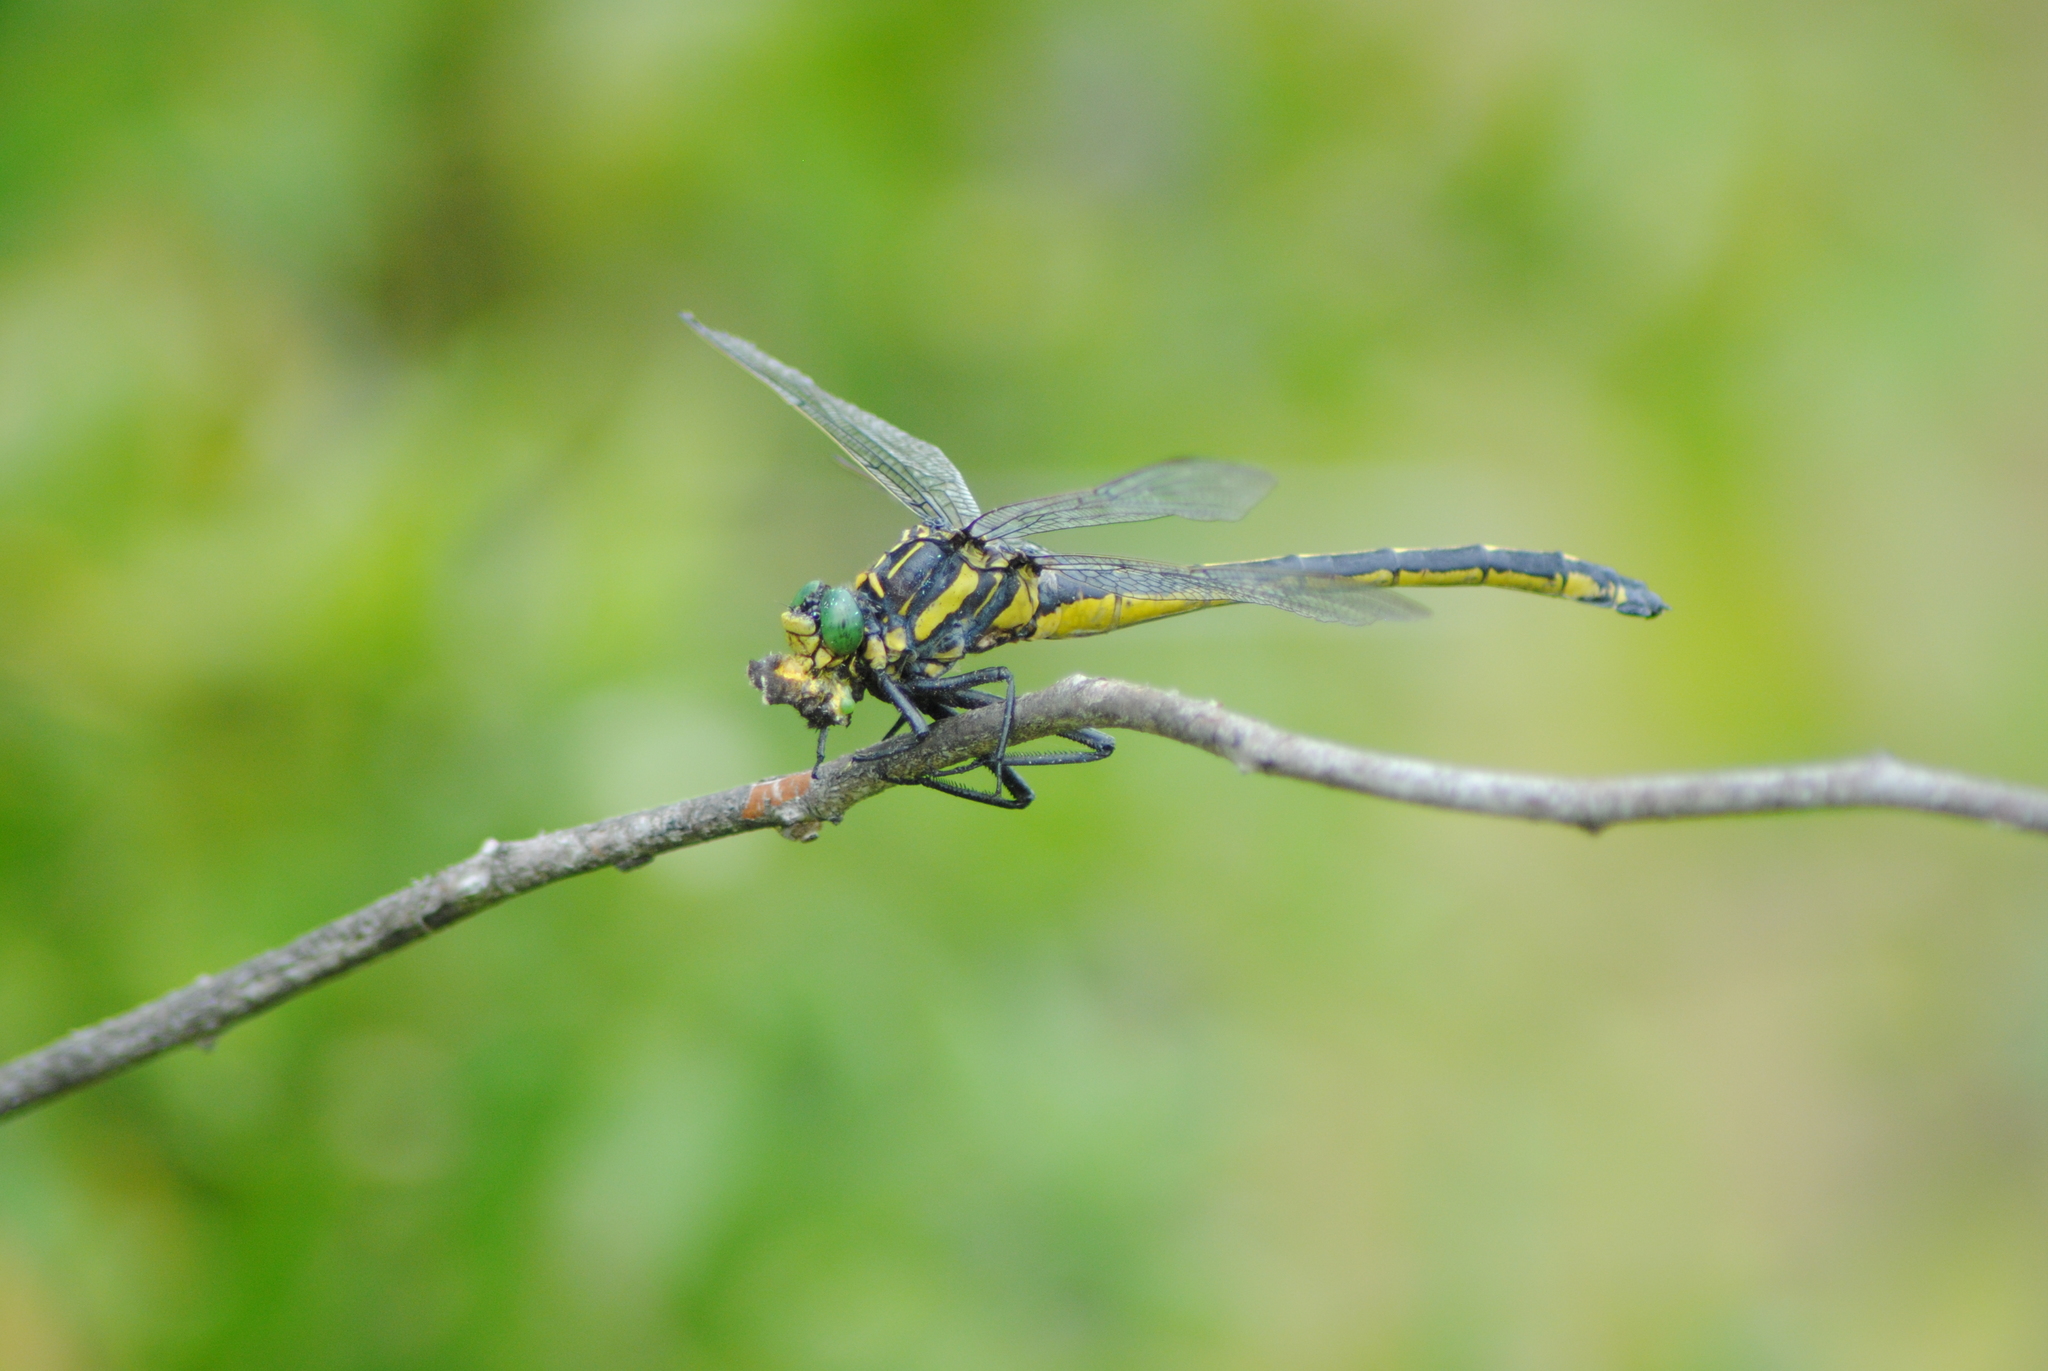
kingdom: Animalia
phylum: Arthropoda
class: Insecta
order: Odonata
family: Gomphidae
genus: Hagenius
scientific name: Hagenius brevistylus
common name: Dragonhunter
